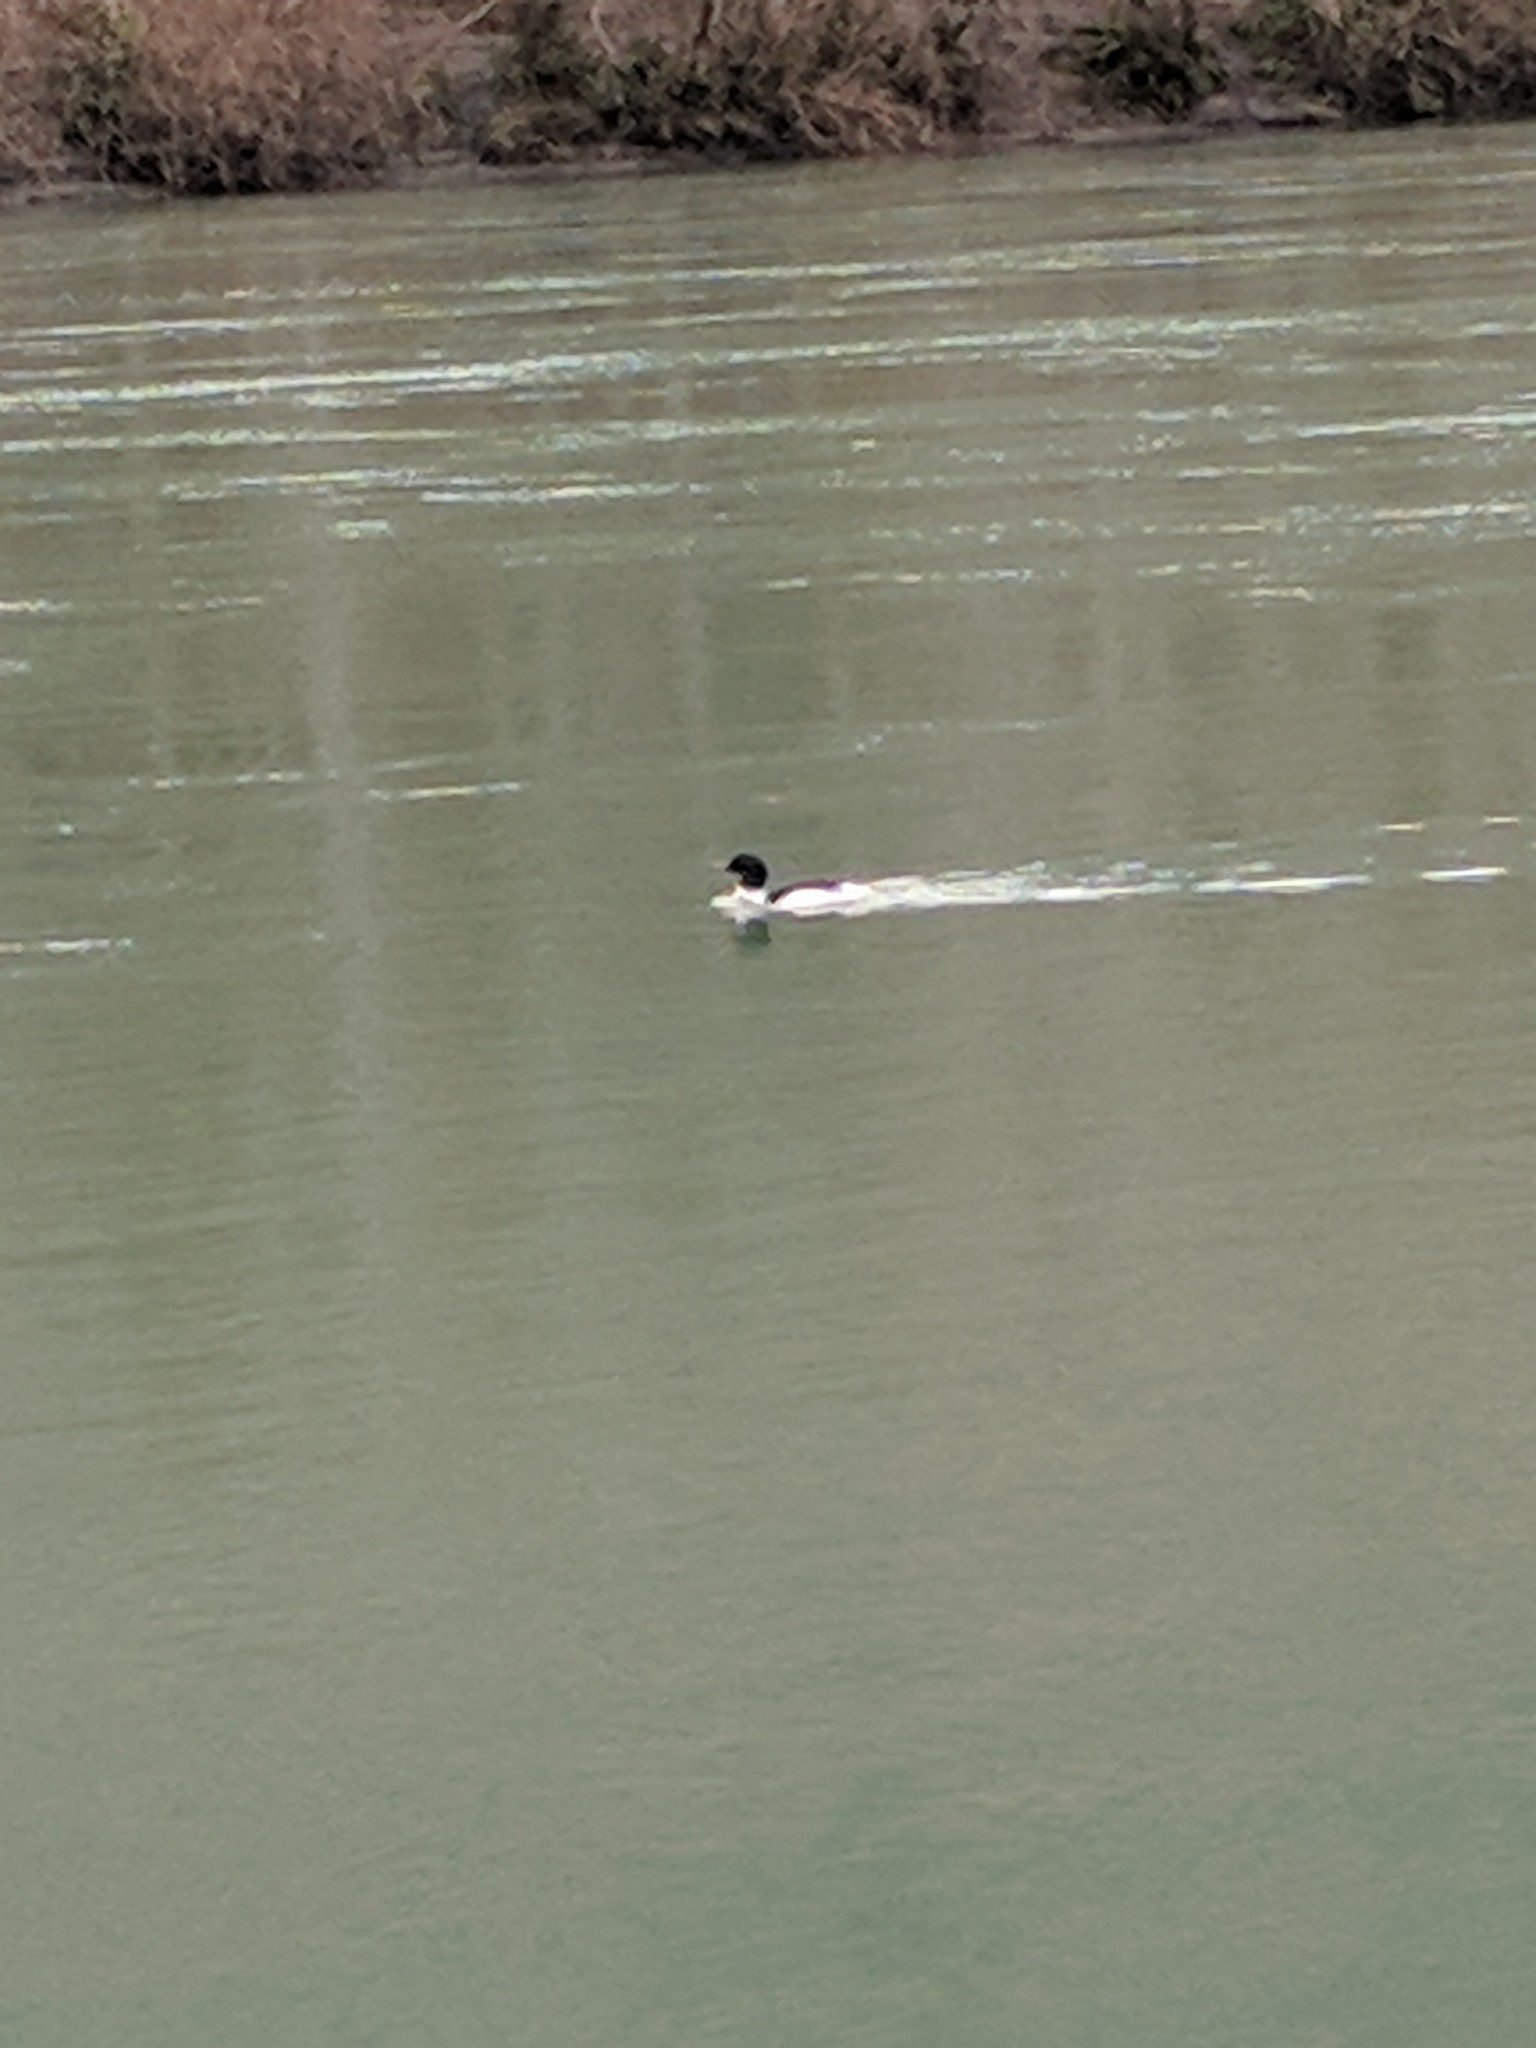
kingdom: Animalia
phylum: Chordata
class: Aves
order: Anseriformes
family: Anatidae
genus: Mergus
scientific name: Mergus merganser
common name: Common merganser
